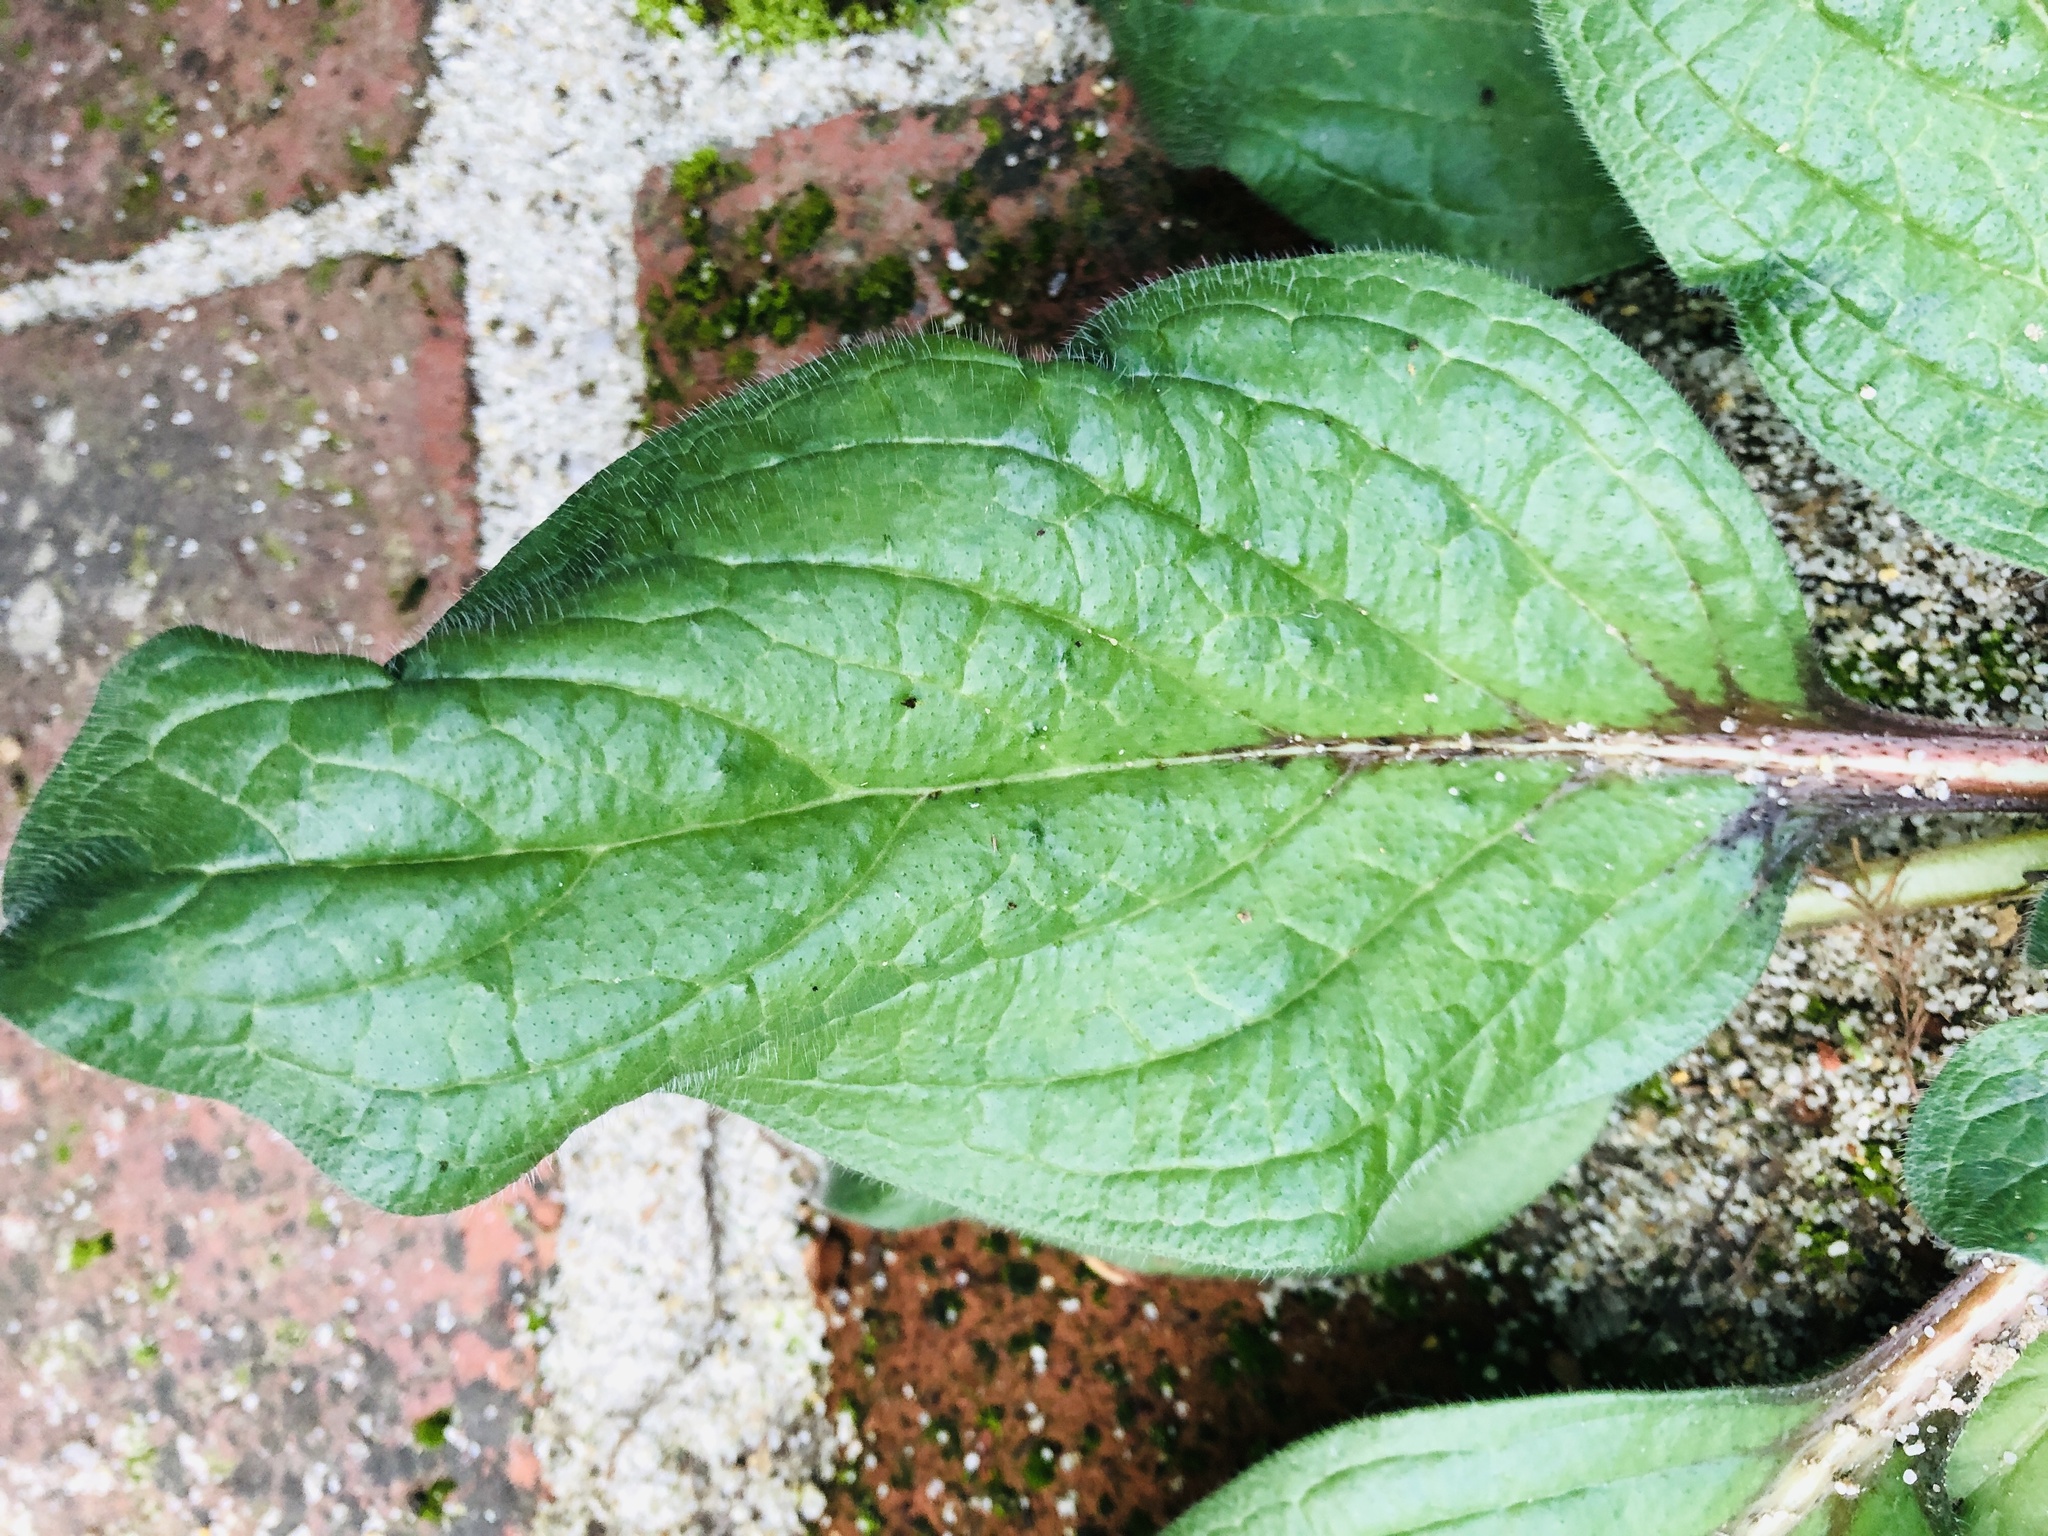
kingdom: Plantae
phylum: Tracheophyta
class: Magnoliopsida
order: Boraginales
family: Boraginaceae
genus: Echium
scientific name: Echium plantagineum
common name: Purple viper's-bugloss
